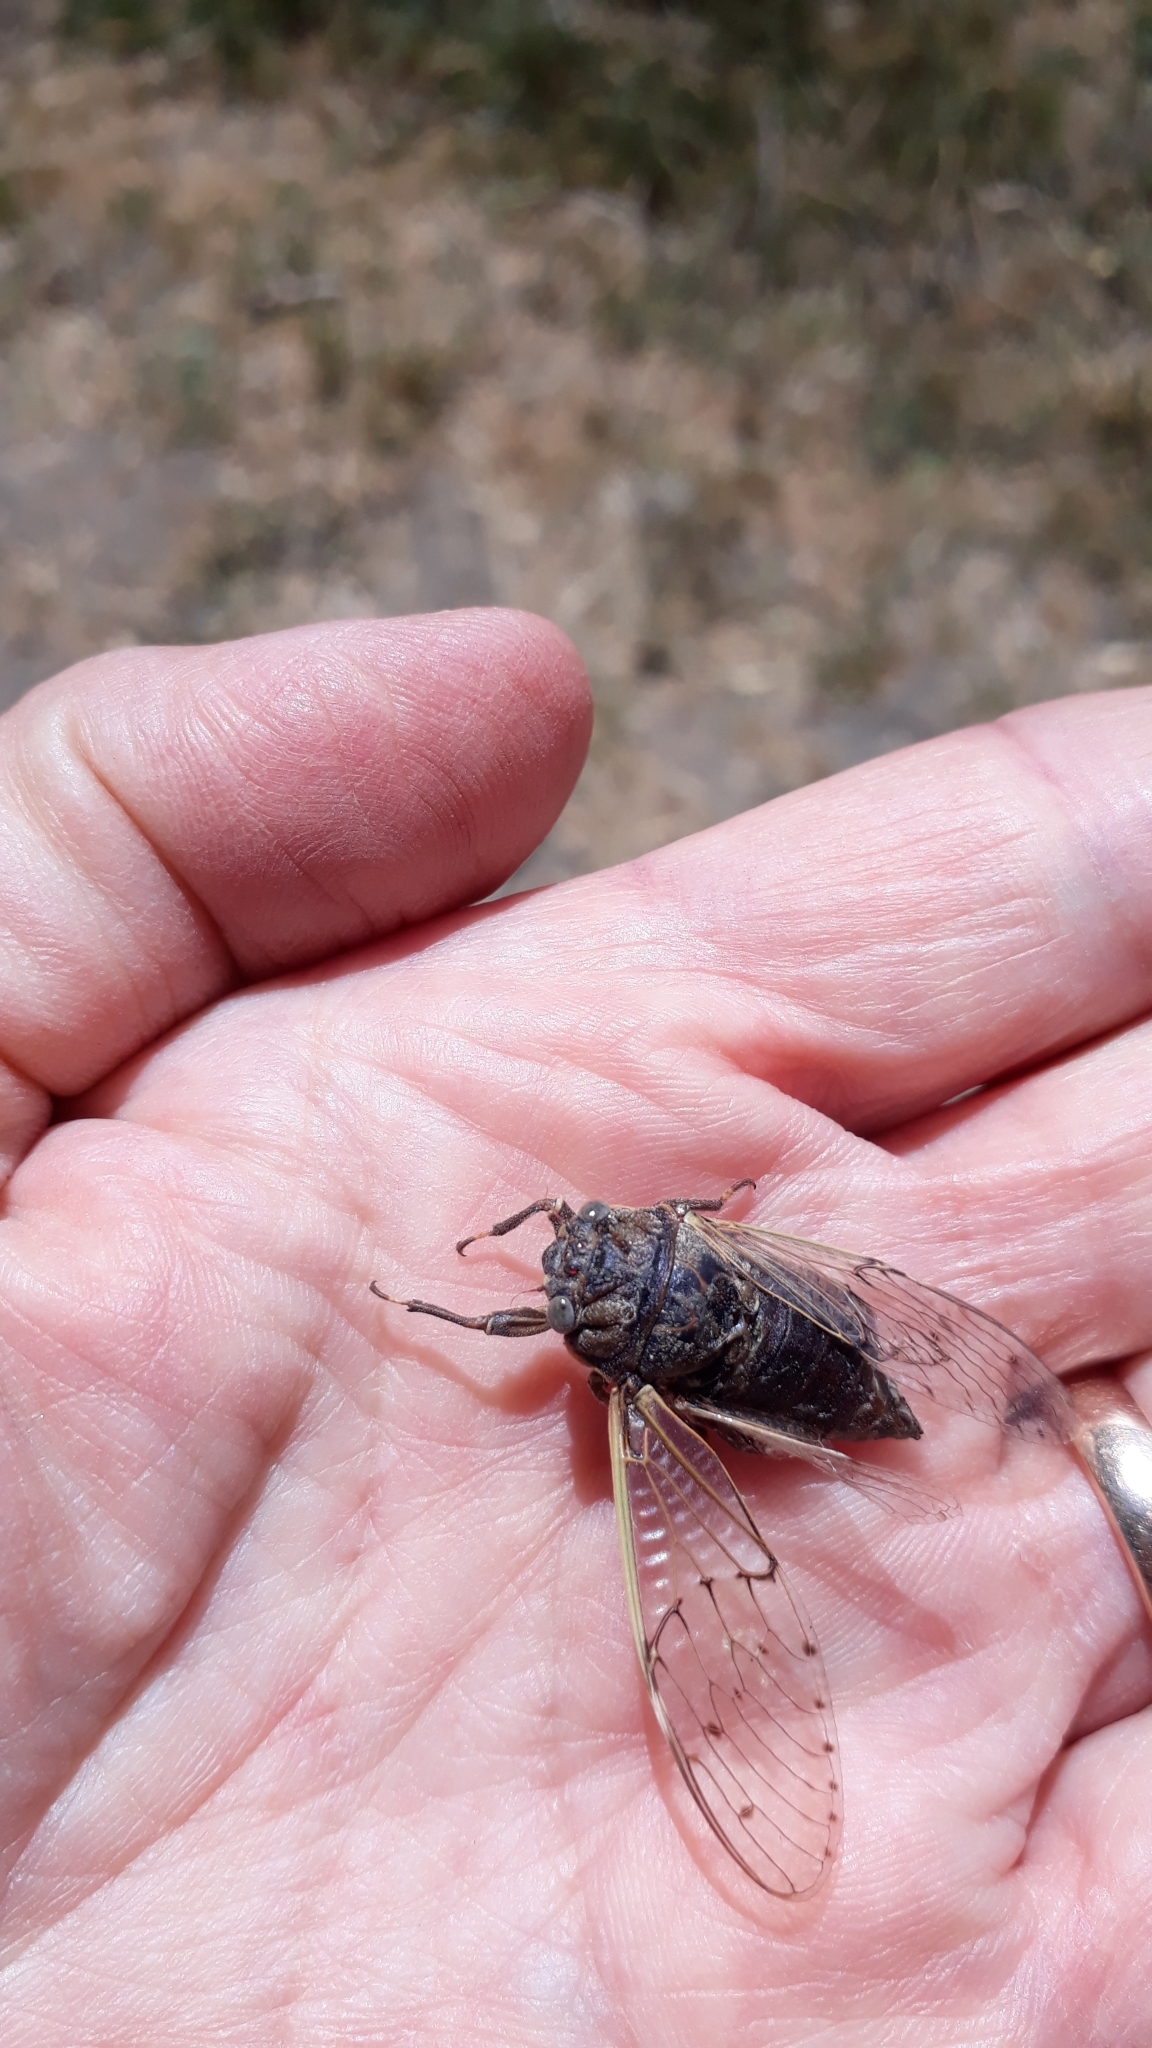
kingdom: Animalia
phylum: Arthropoda
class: Insecta
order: Hemiptera
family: Cicadidae
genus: Proarna
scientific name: Proarna bufo
